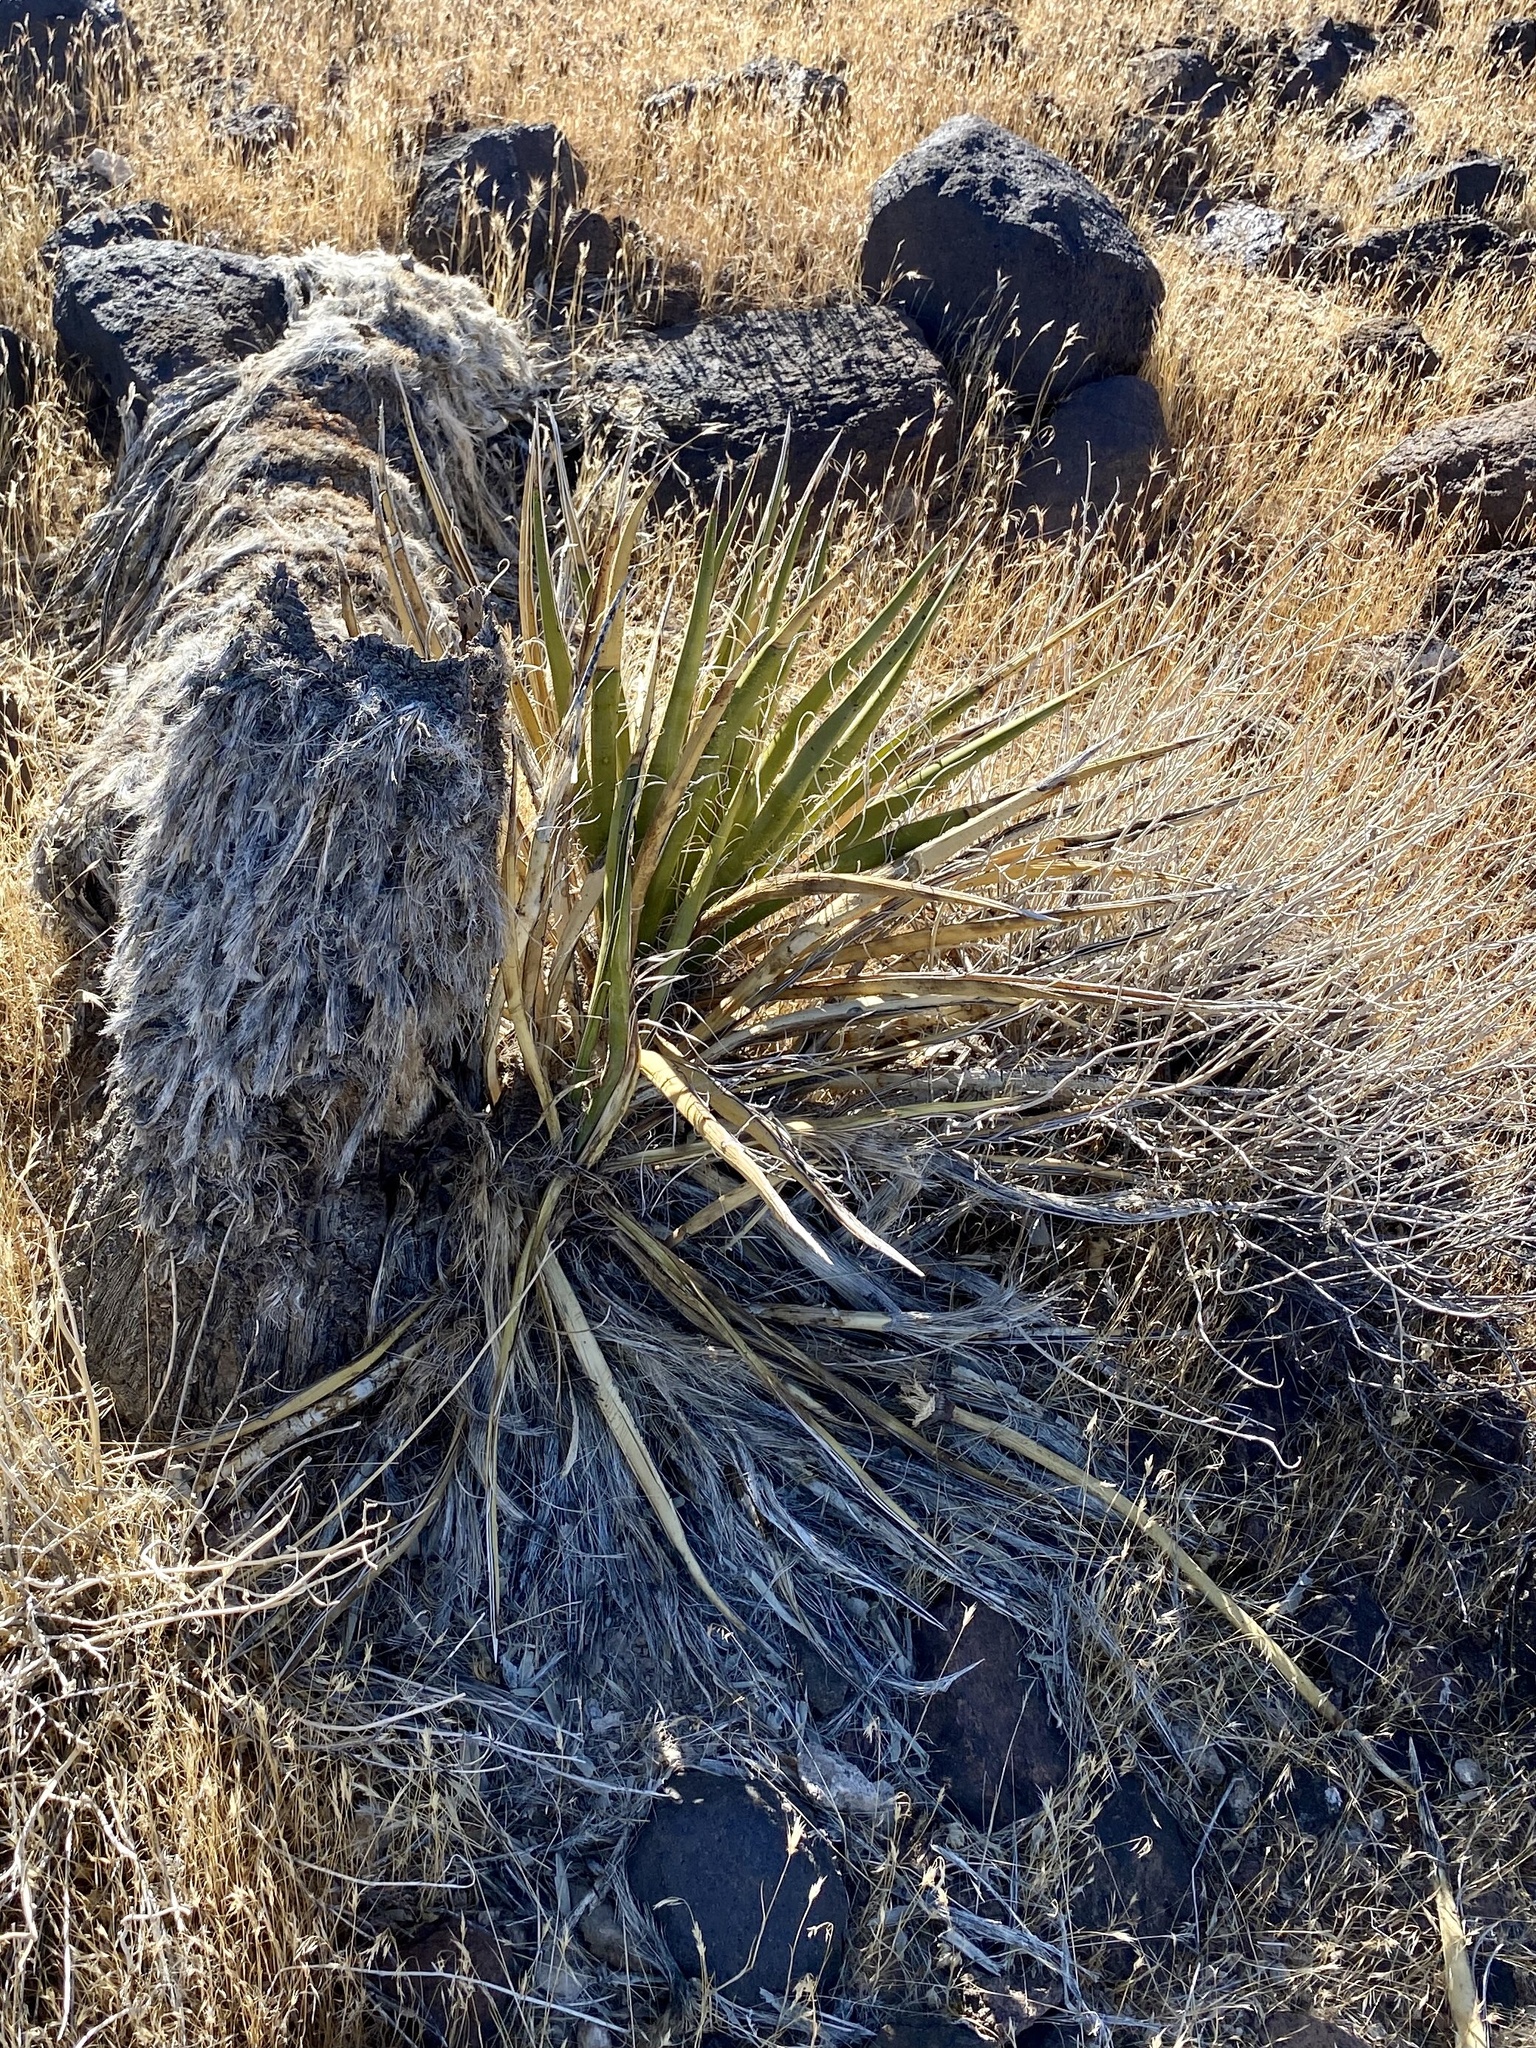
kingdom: Plantae
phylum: Tracheophyta
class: Liliopsida
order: Asparagales
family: Asparagaceae
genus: Yucca
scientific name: Yucca schidigera
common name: Mojave yucca
